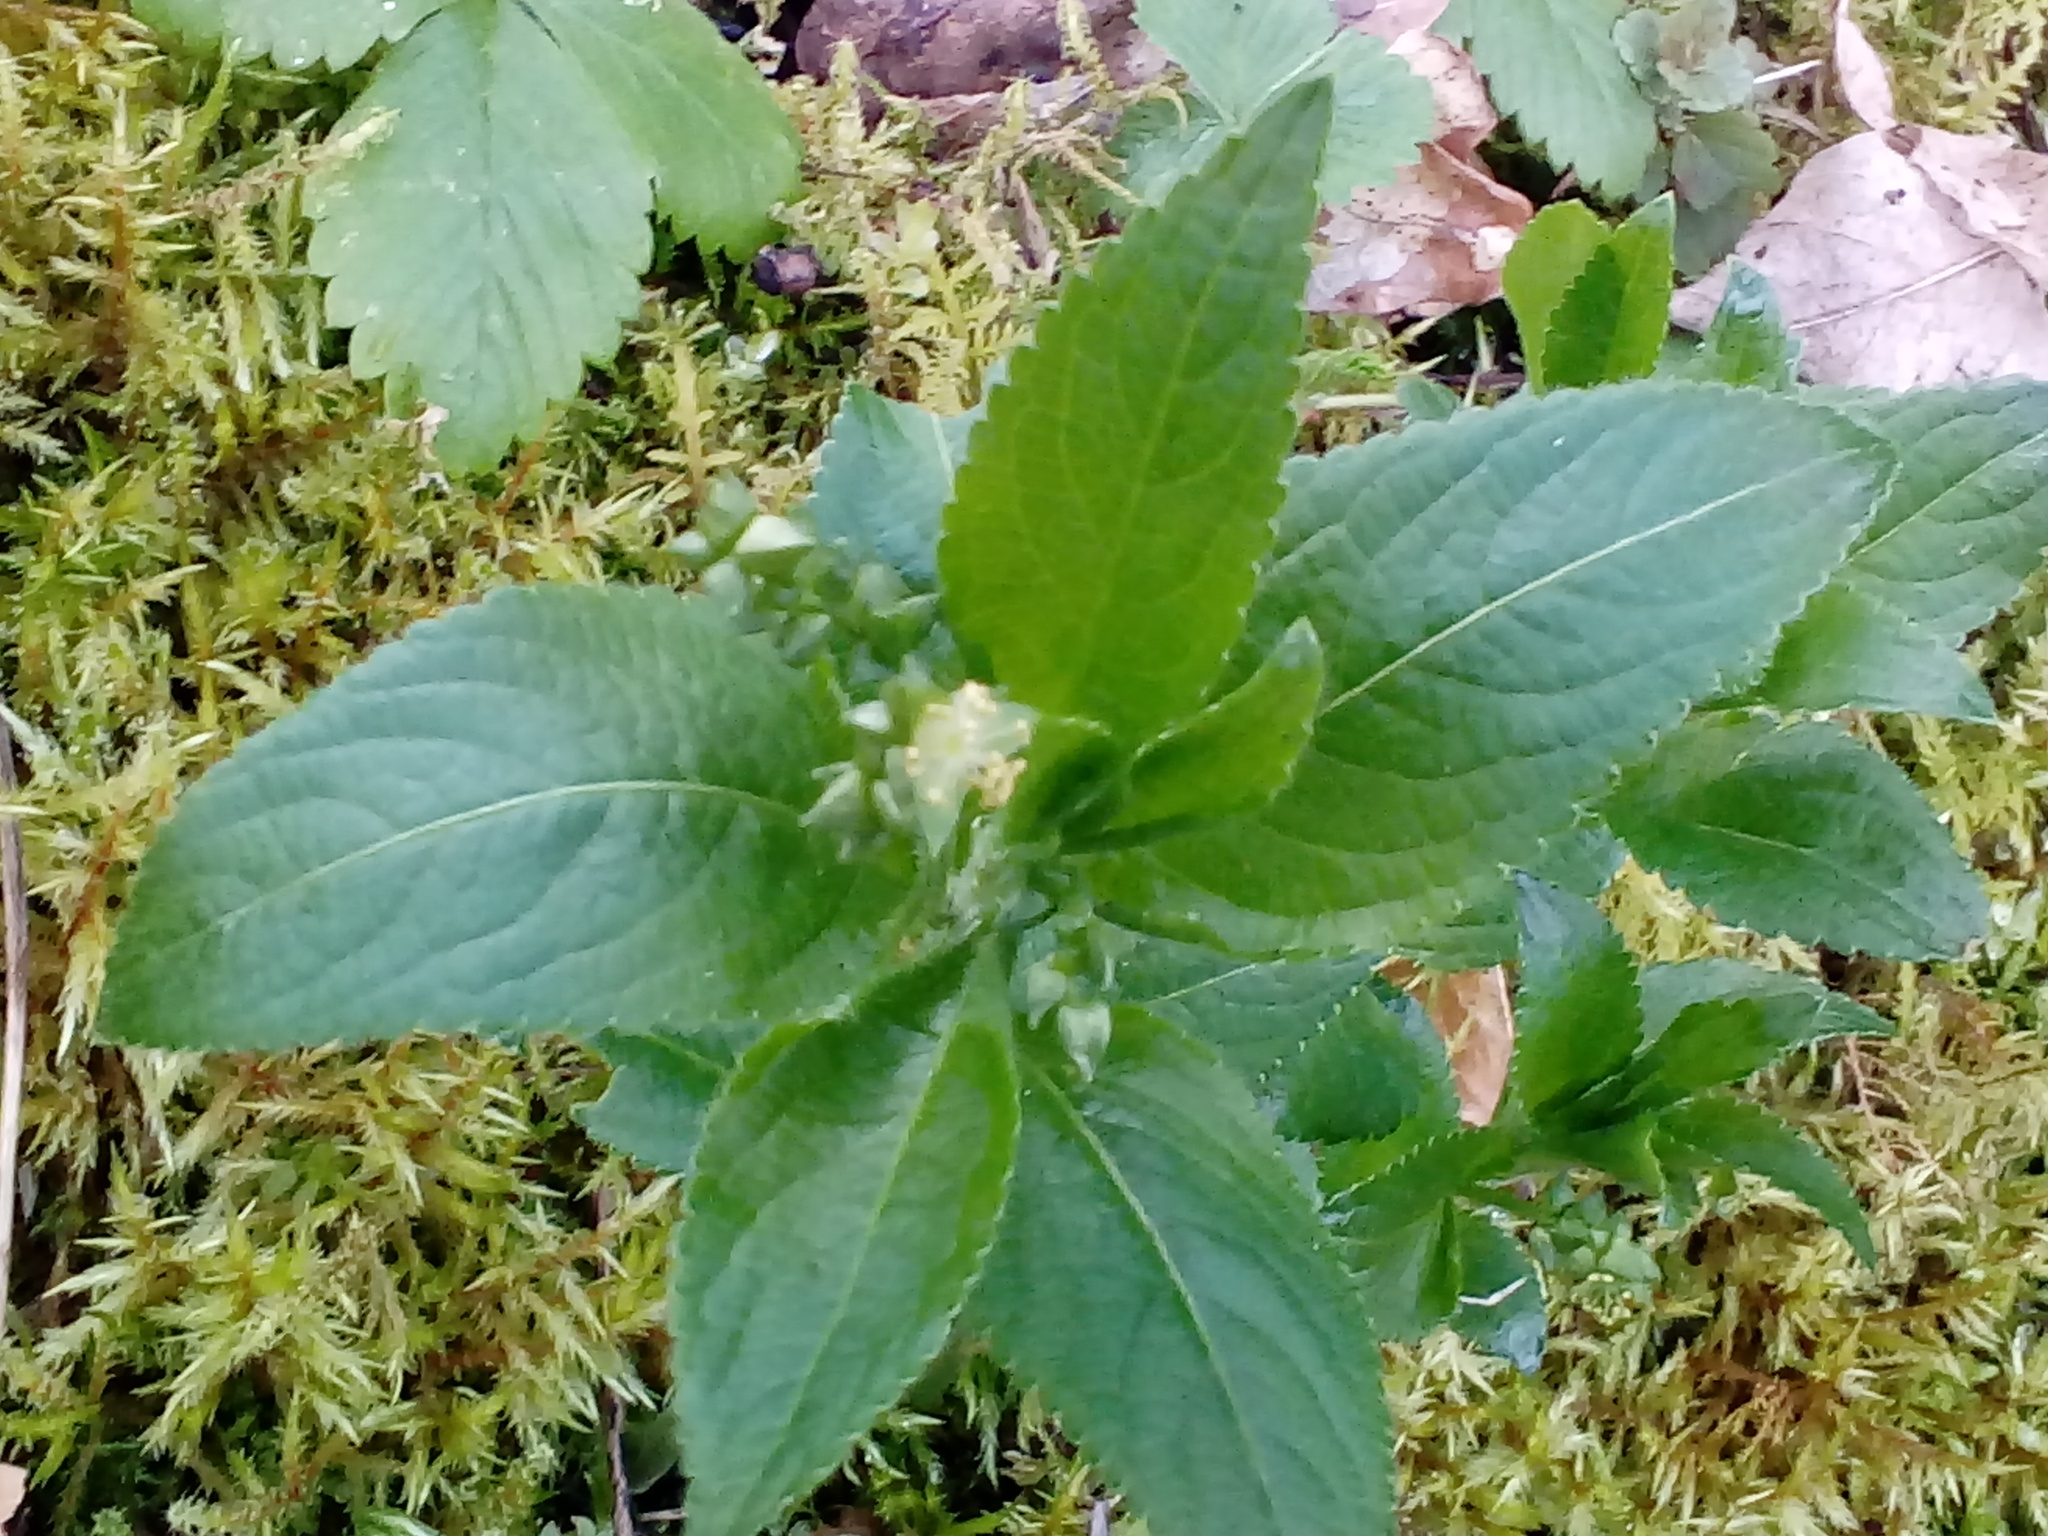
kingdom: Plantae
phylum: Tracheophyta
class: Magnoliopsida
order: Malpighiales
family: Euphorbiaceae
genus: Mercurialis
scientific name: Mercurialis perennis
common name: Dog mercury
